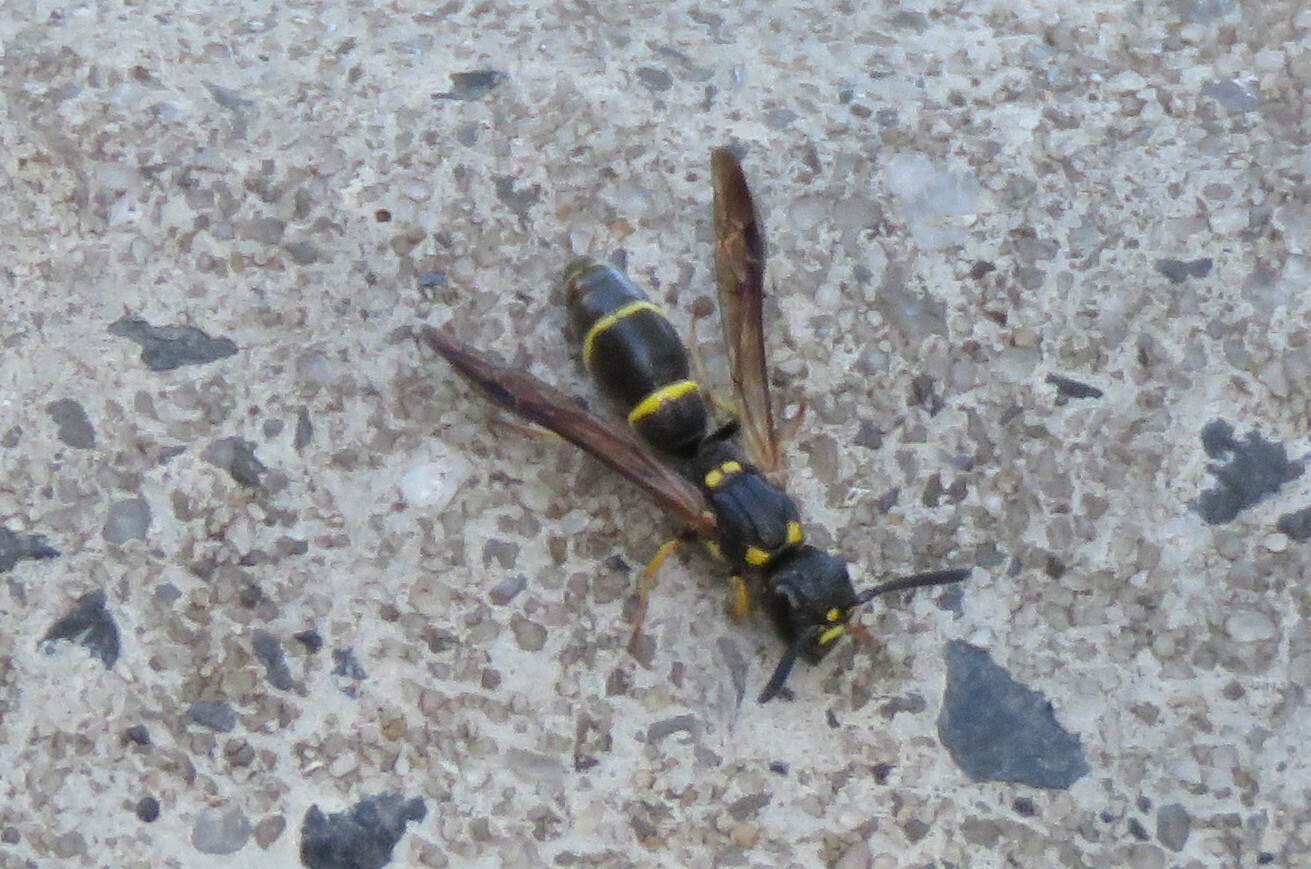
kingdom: Animalia
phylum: Arthropoda
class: Insecta
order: Hymenoptera
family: Eumenidae
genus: Symmorphus
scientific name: Symmorphus canadensis
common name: Canadian potter wasp
